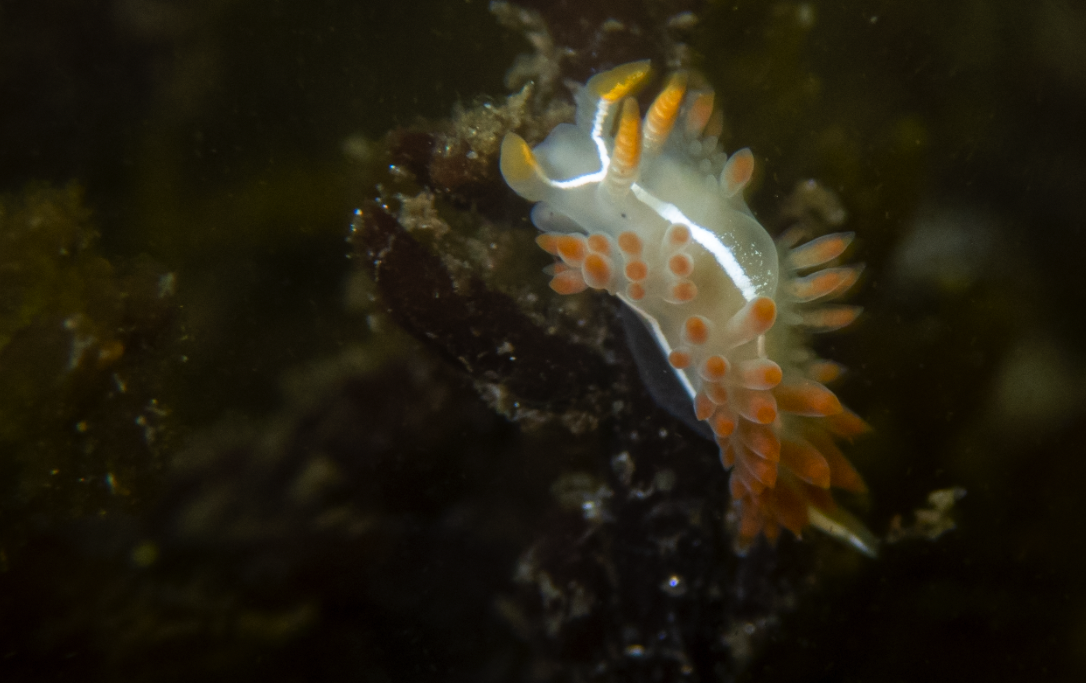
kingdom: Animalia
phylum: Mollusca
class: Gastropoda
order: Nudibranchia
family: Coryphellidae
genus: Coryphella
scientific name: Coryphella trilineata
